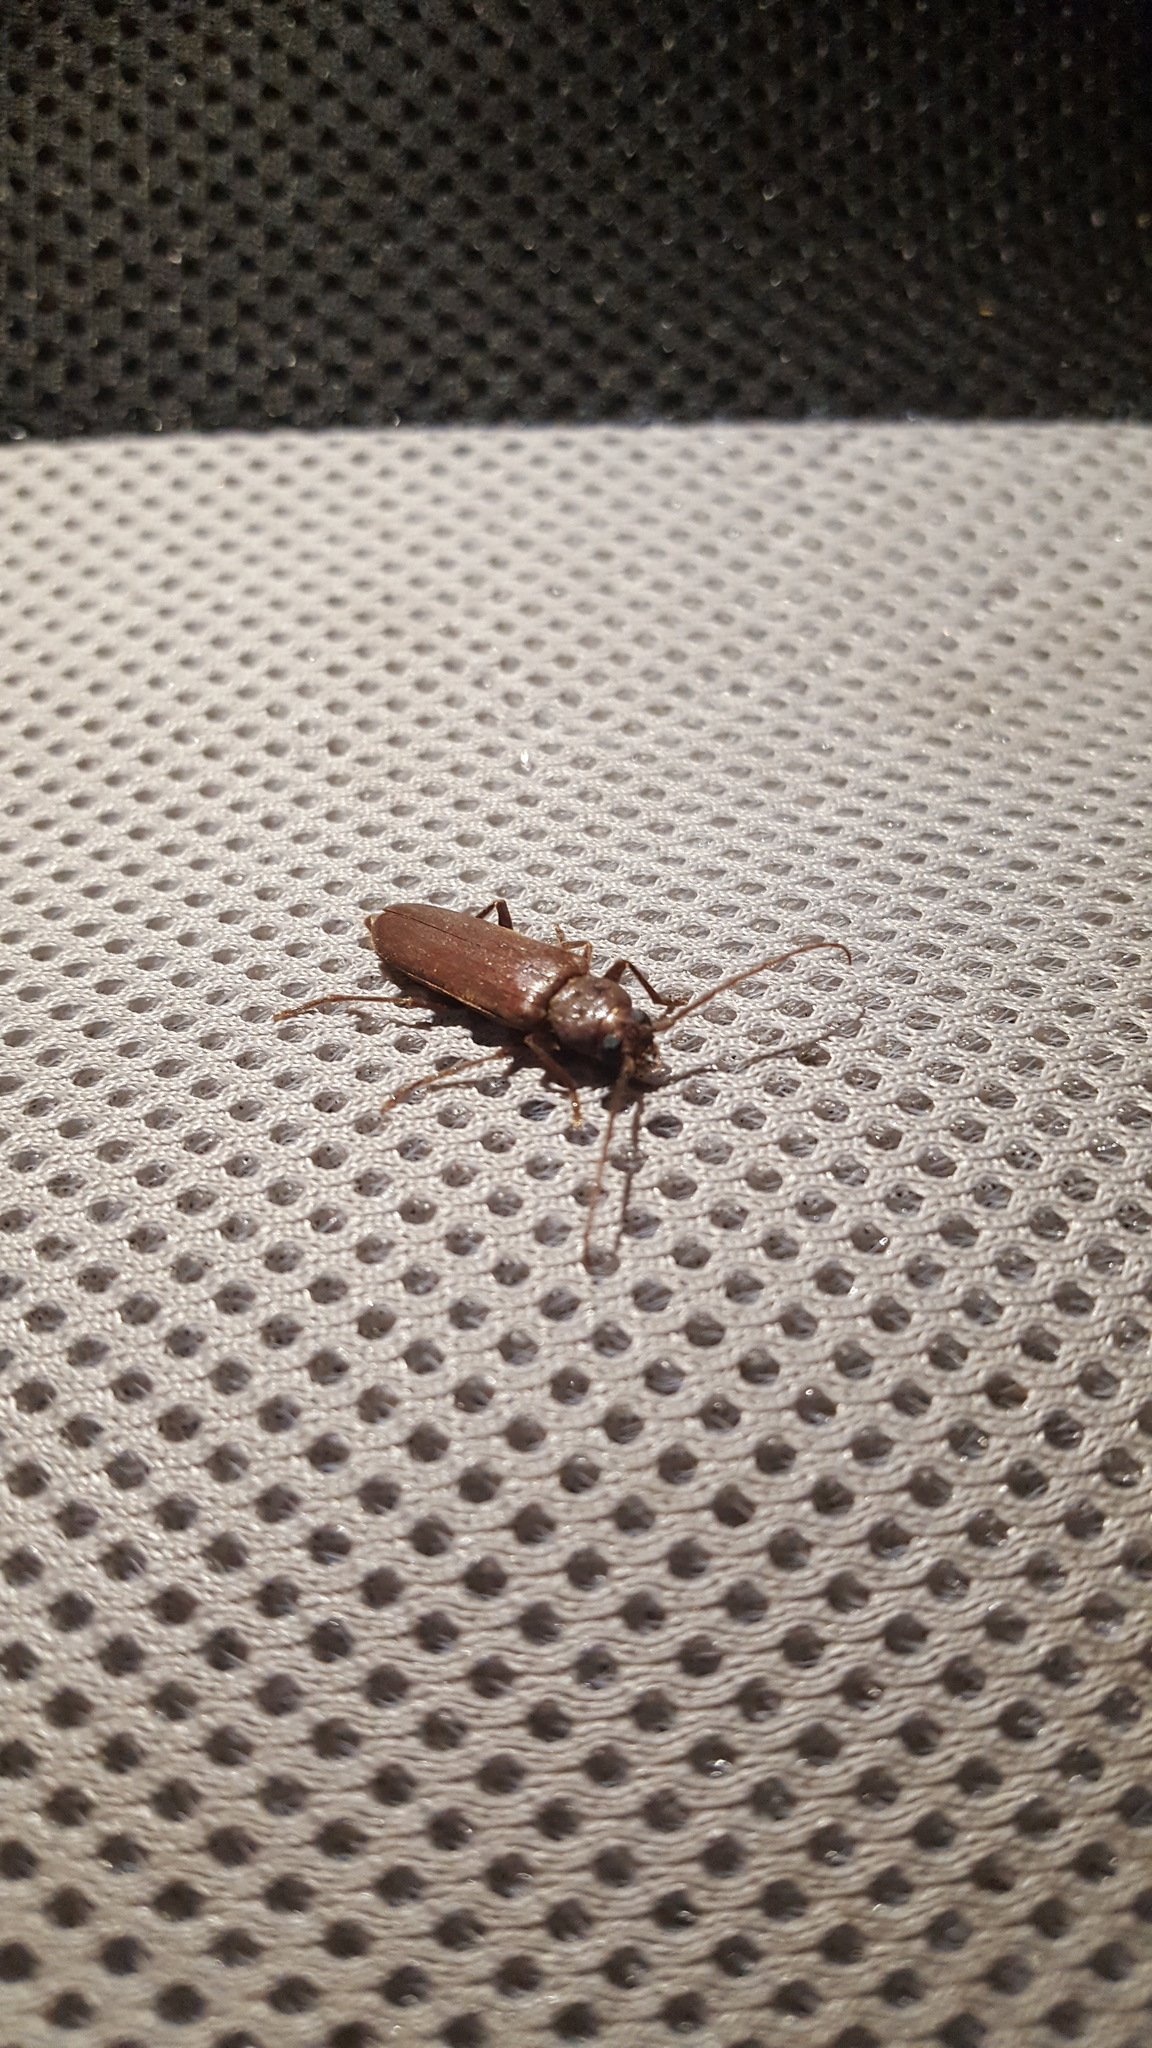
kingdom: Animalia
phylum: Arthropoda
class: Insecta
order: Coleoptera
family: Cerambycidae
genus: Arhopalus
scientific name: Arhopalus rusticus
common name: Rust pine borer
